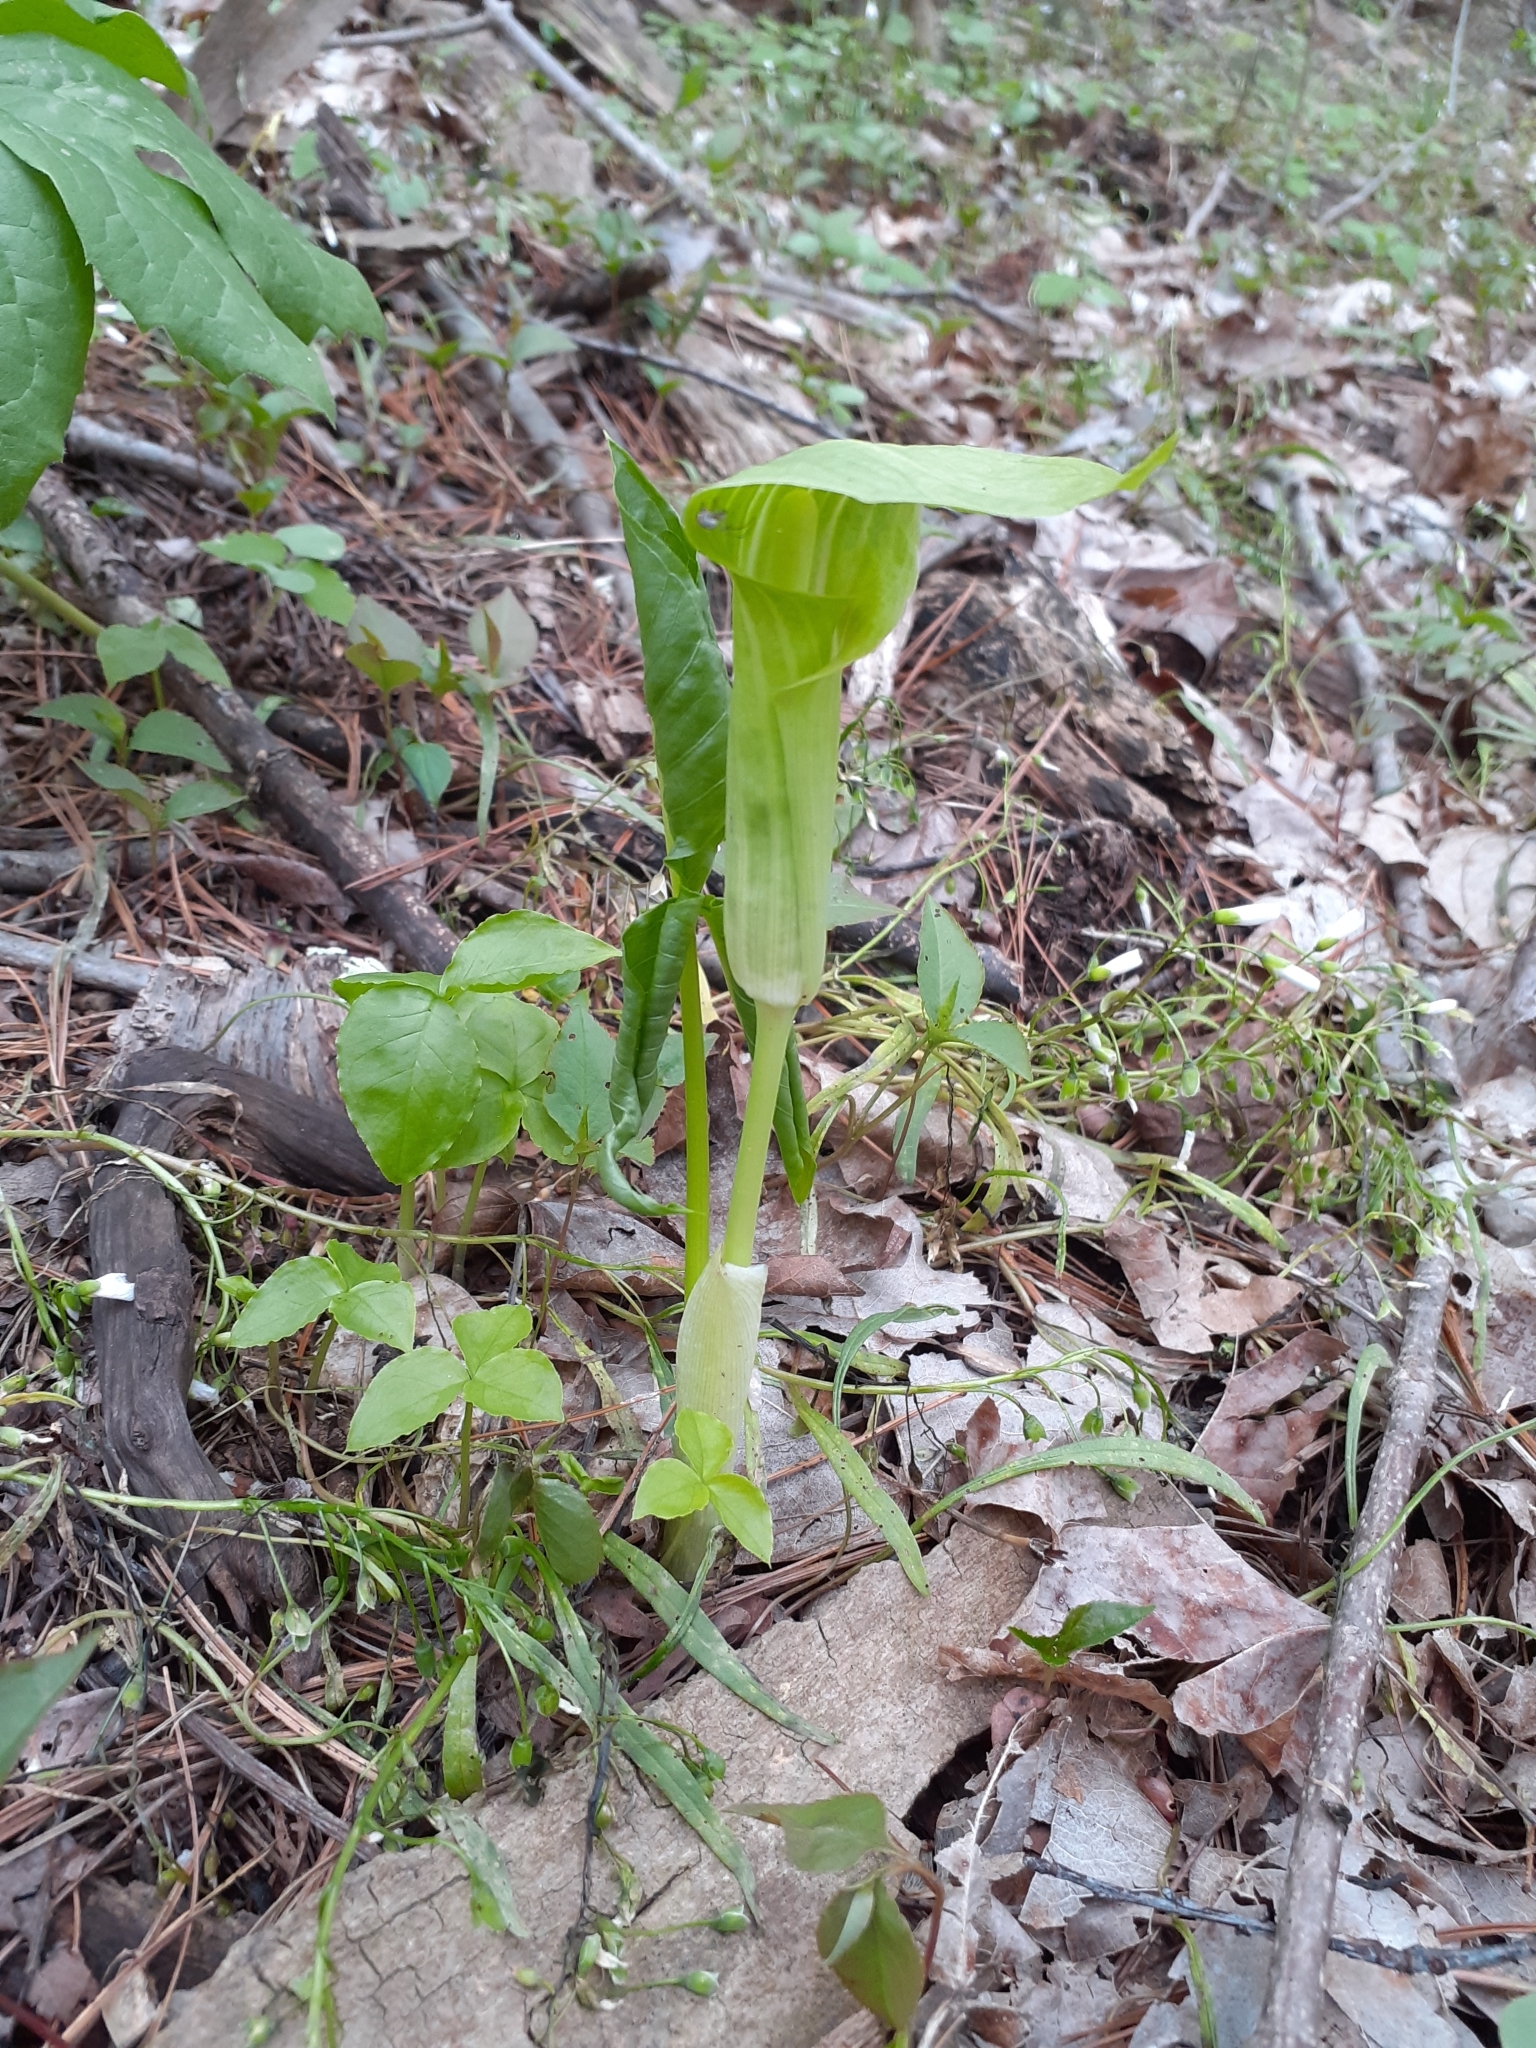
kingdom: Plantae
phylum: Tracheophyta
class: Liliopsida
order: Alismatales
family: Araceae
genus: Arisaema
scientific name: Arisaema triphyllum
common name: Jack-in-the-pulpit
